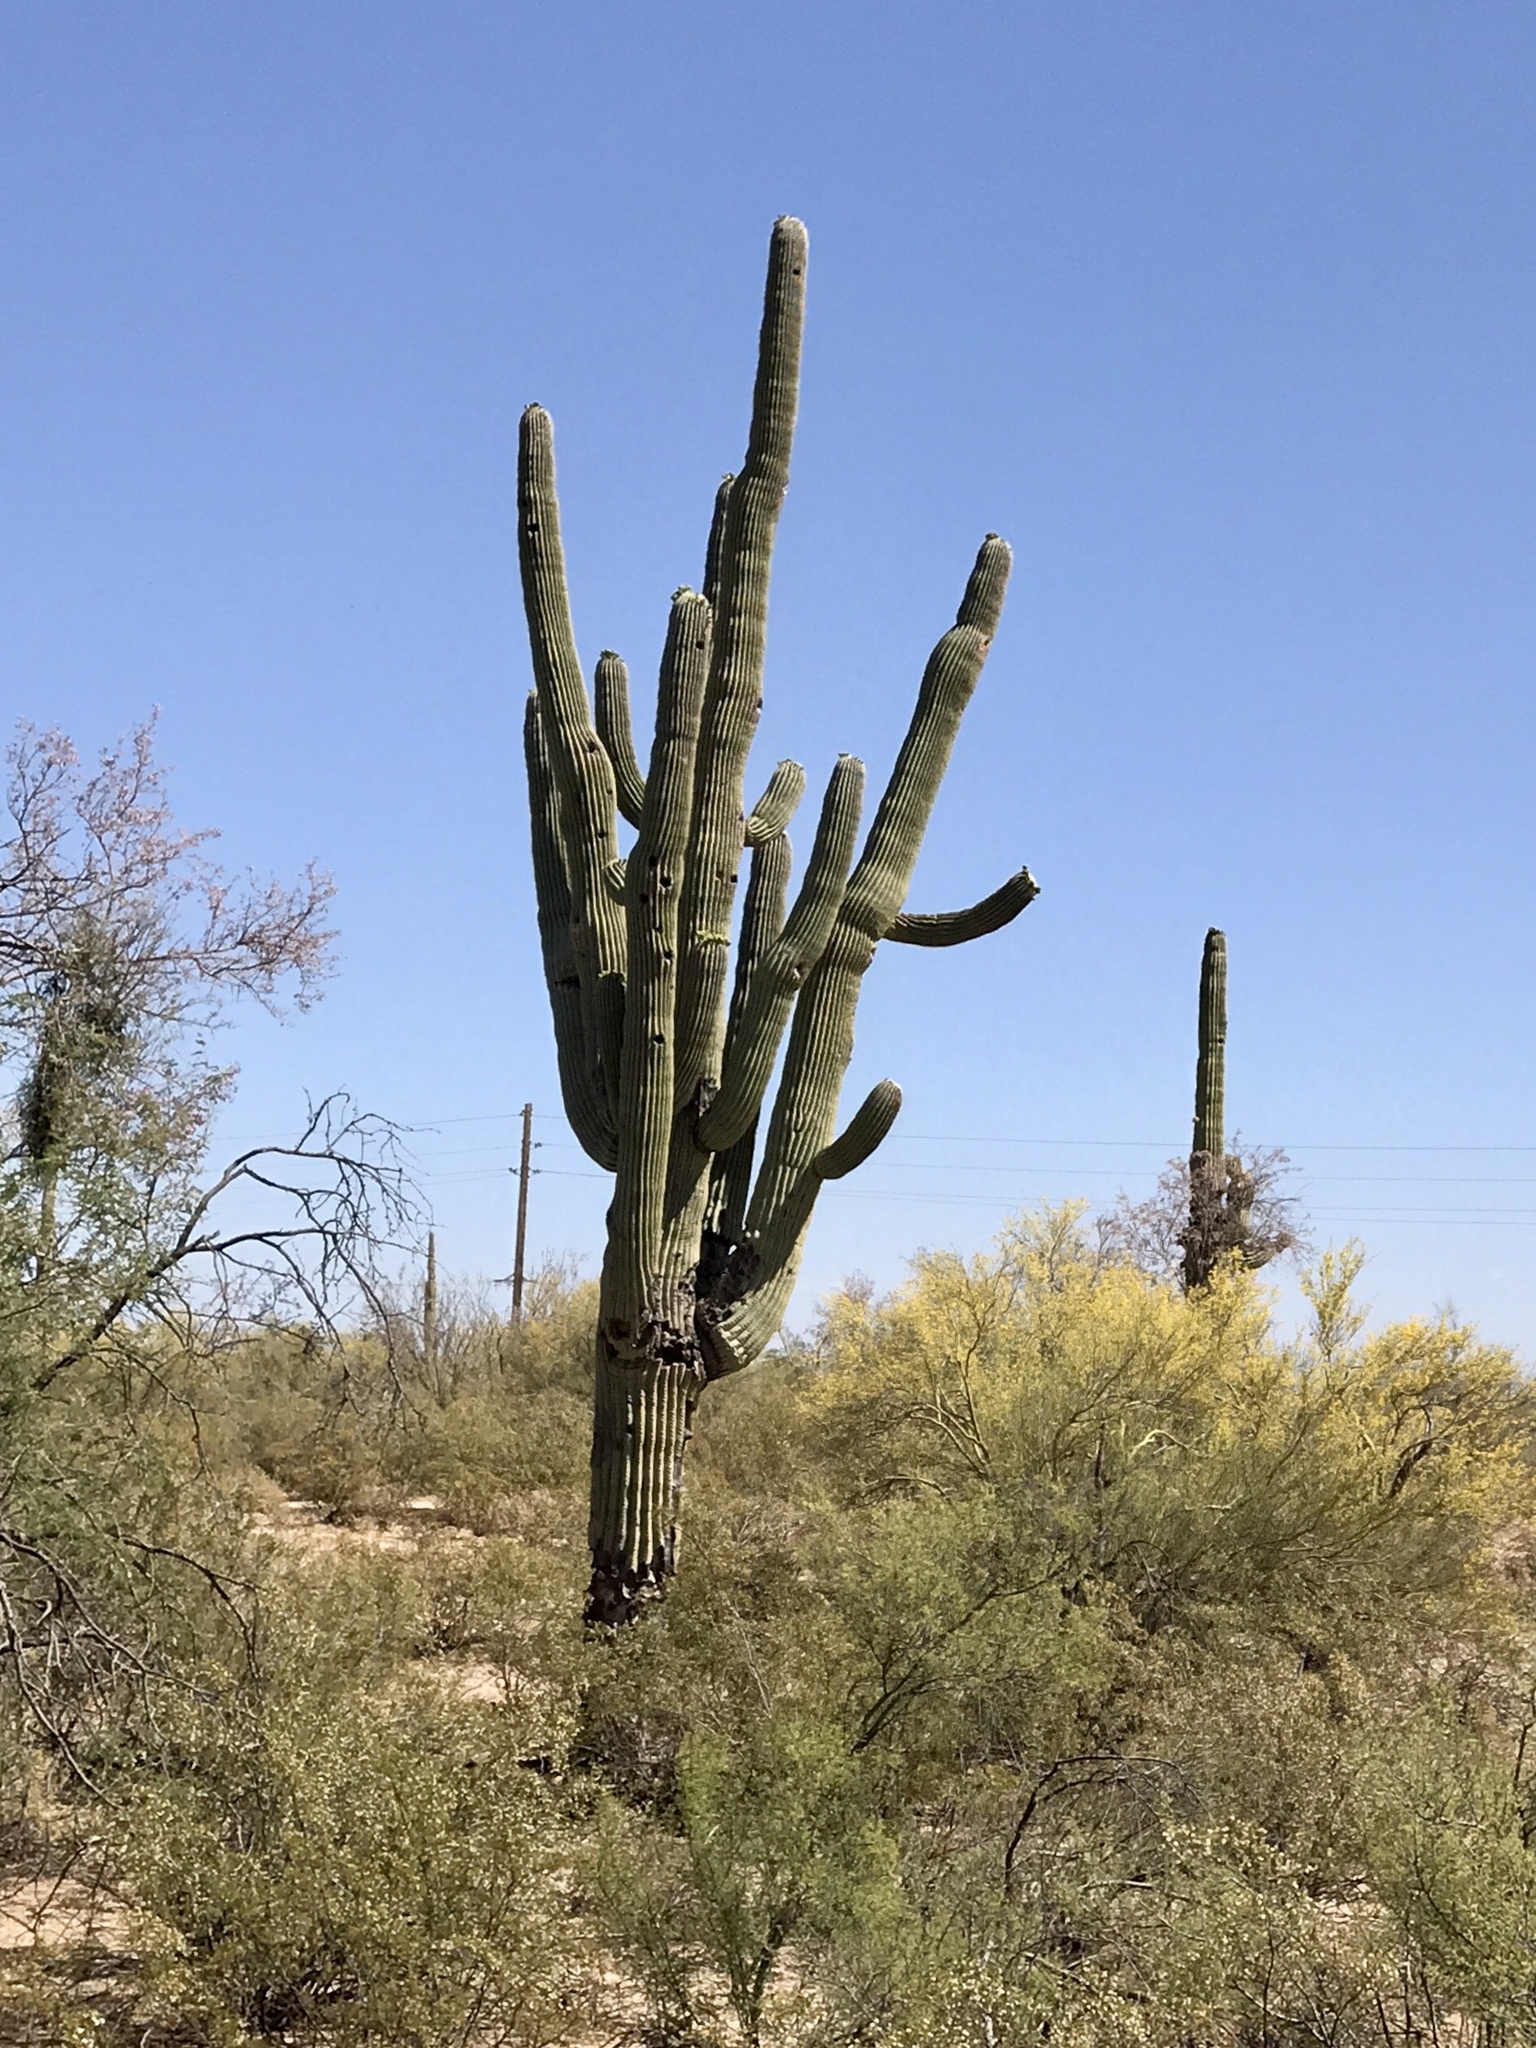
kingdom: Plantae
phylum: Tracheophyta
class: Magnoliopsida
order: Caryophyllales
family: Cactaceae
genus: Carnegiea
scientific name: Carnegiea gigantea
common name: Saguaro
